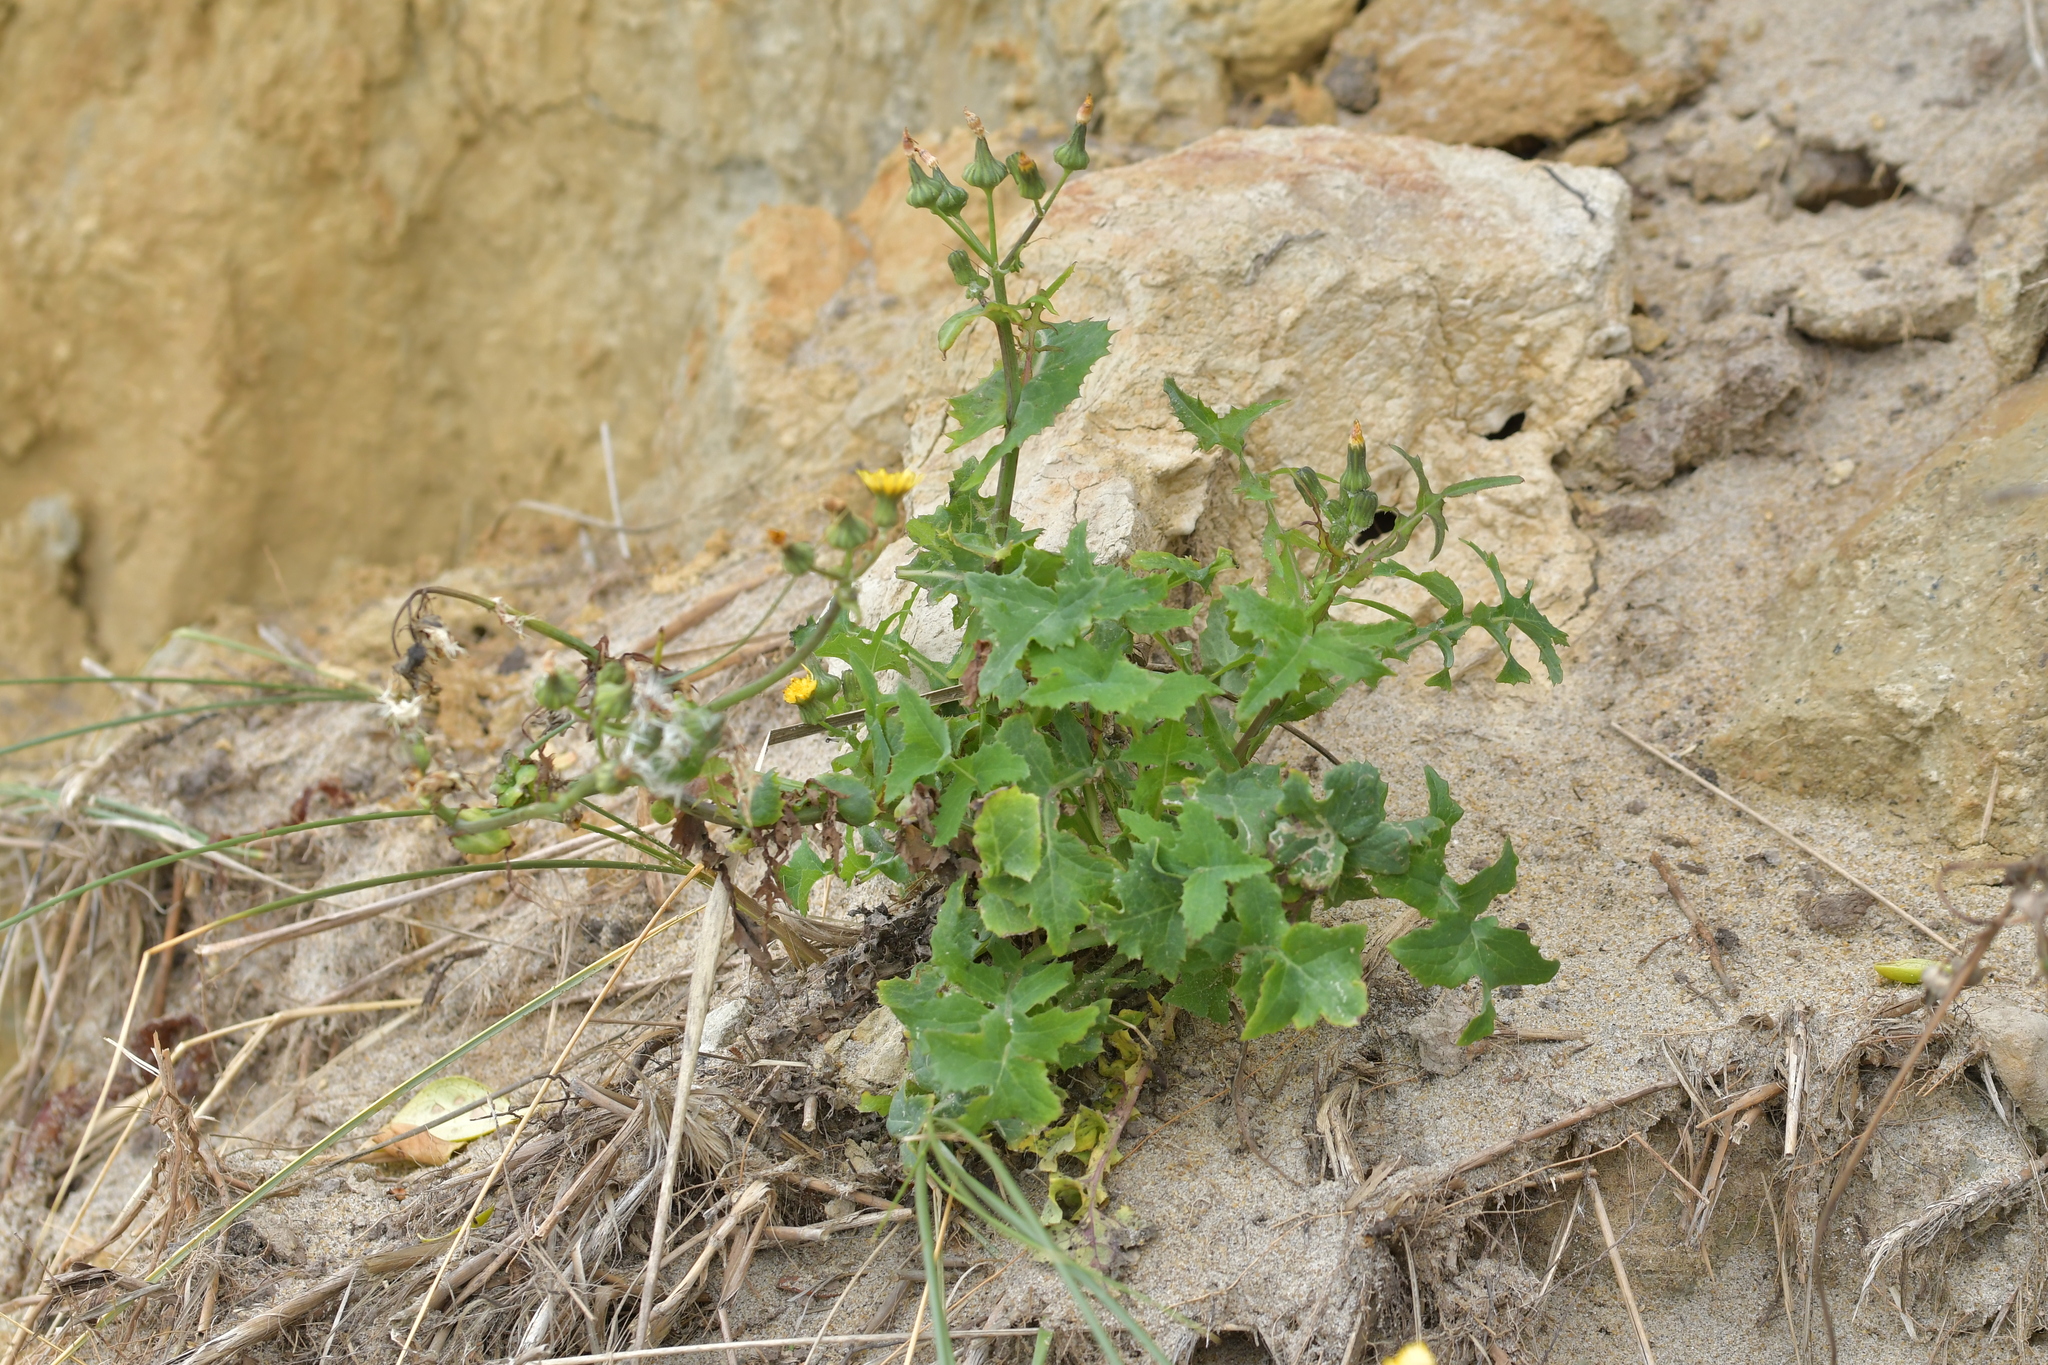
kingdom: Plantae
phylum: Tracheophyta
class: Magnoliopsida
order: Asterales
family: Asteraceae
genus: Sonchus
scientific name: Sonchus oleraceus
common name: Common sowthistle
